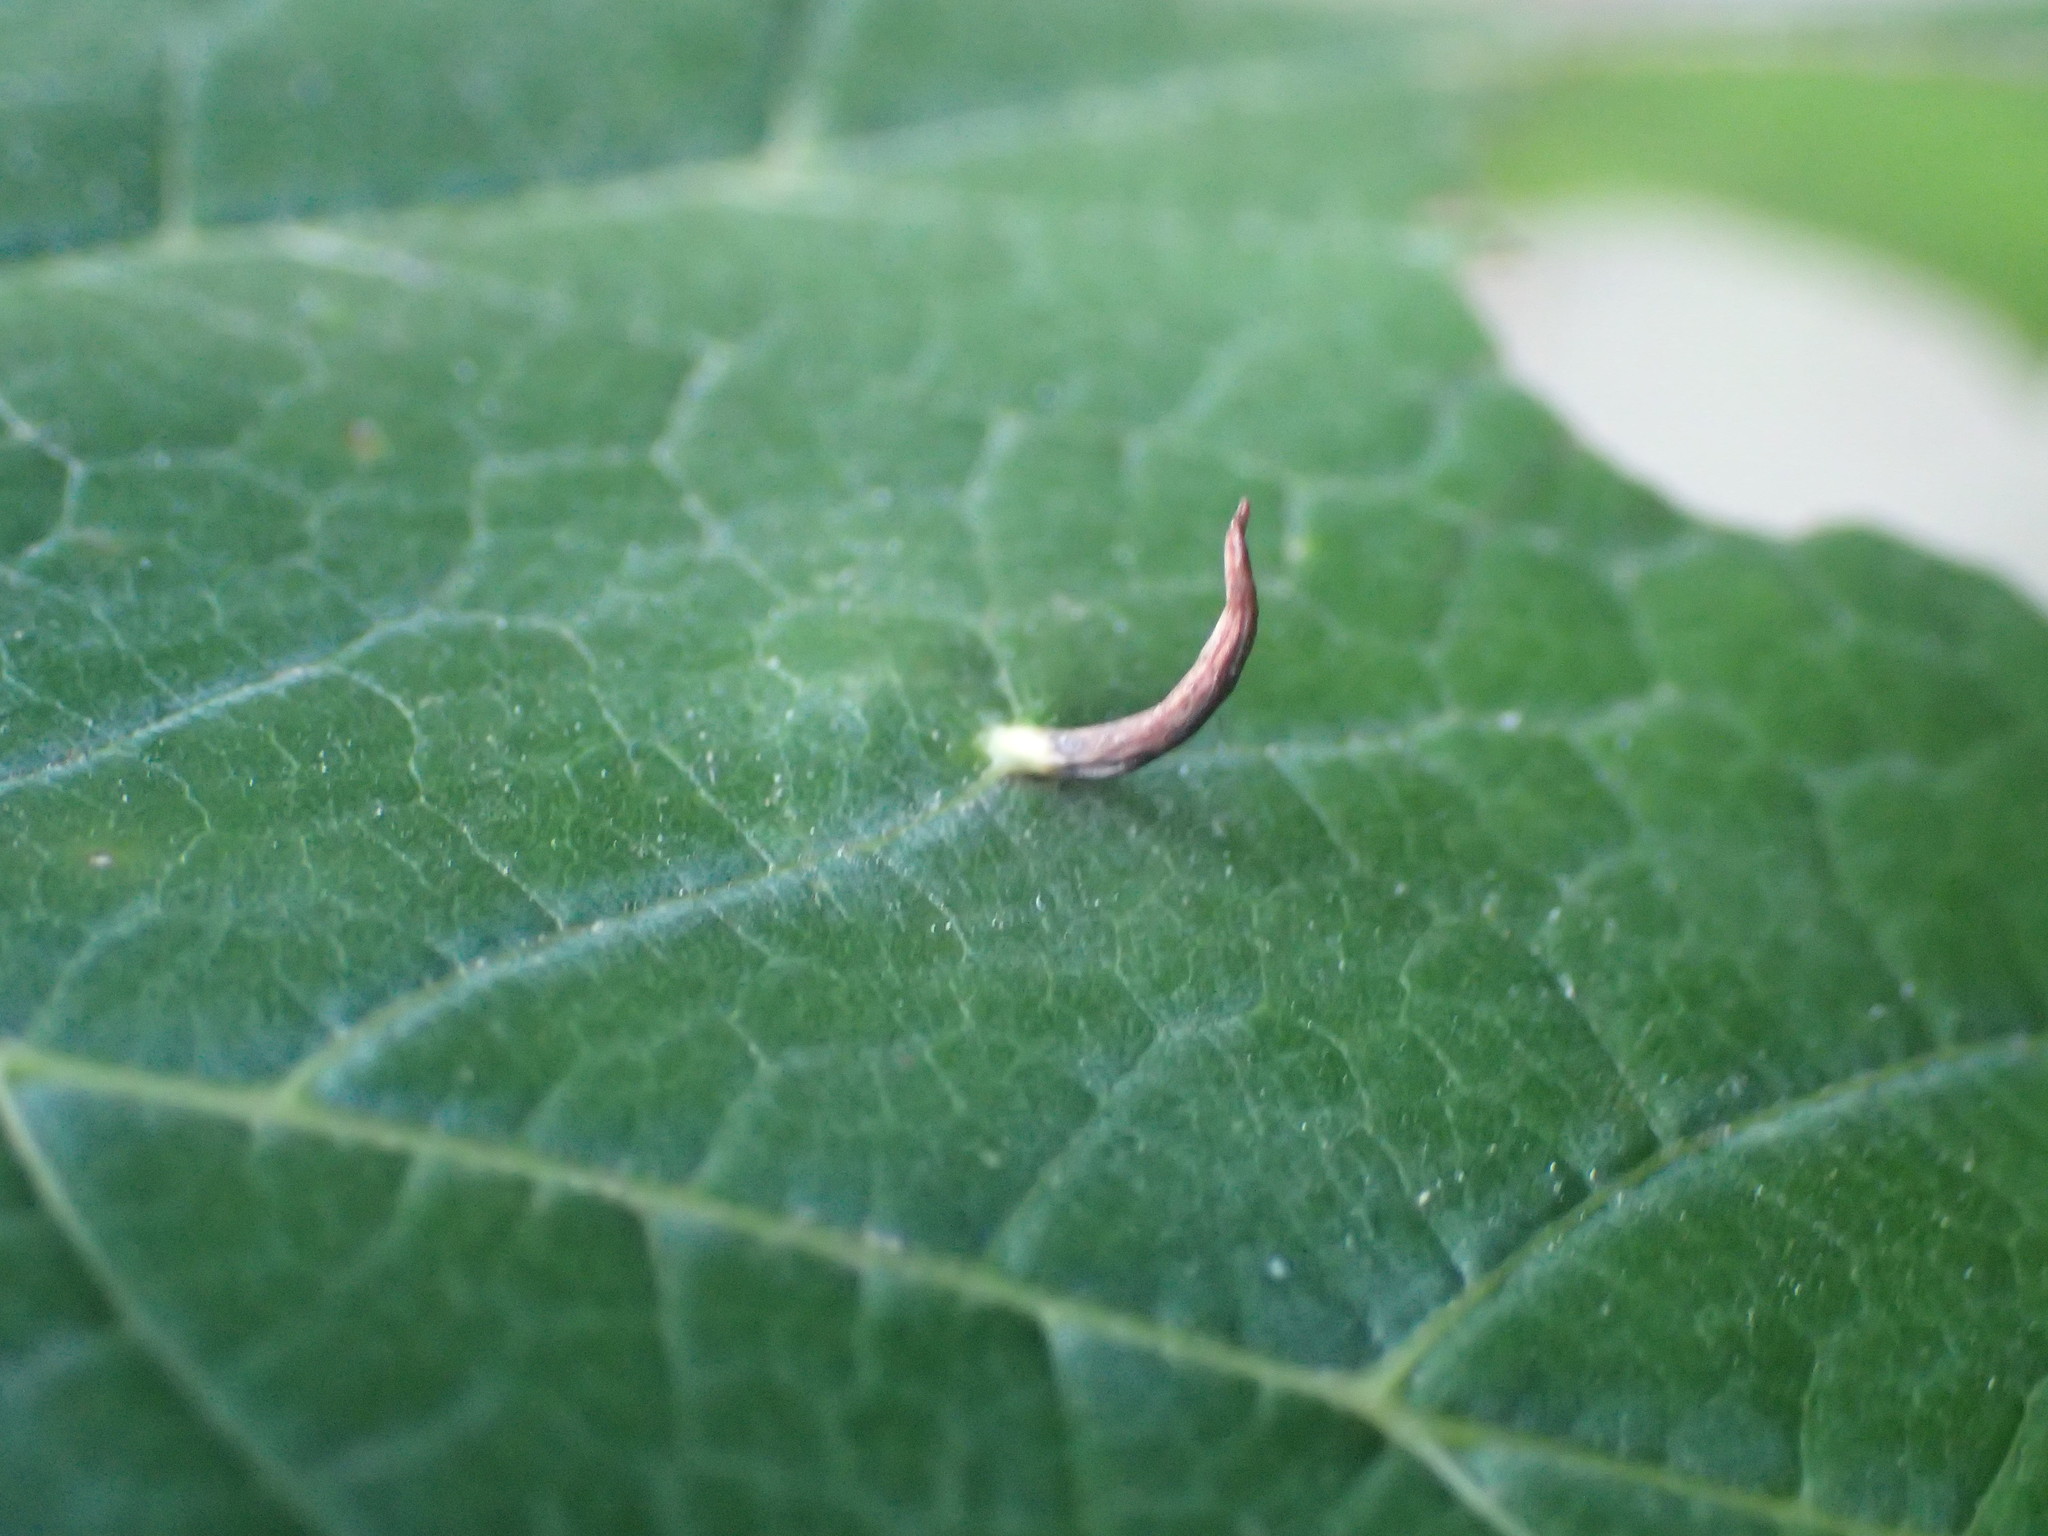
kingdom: Animalia
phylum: Arthropoda
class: Arachnida
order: Trombidiformes
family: Eriophyidae
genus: Vasates
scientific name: Vasates aceriscrumena
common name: Maple spindle gall mite
